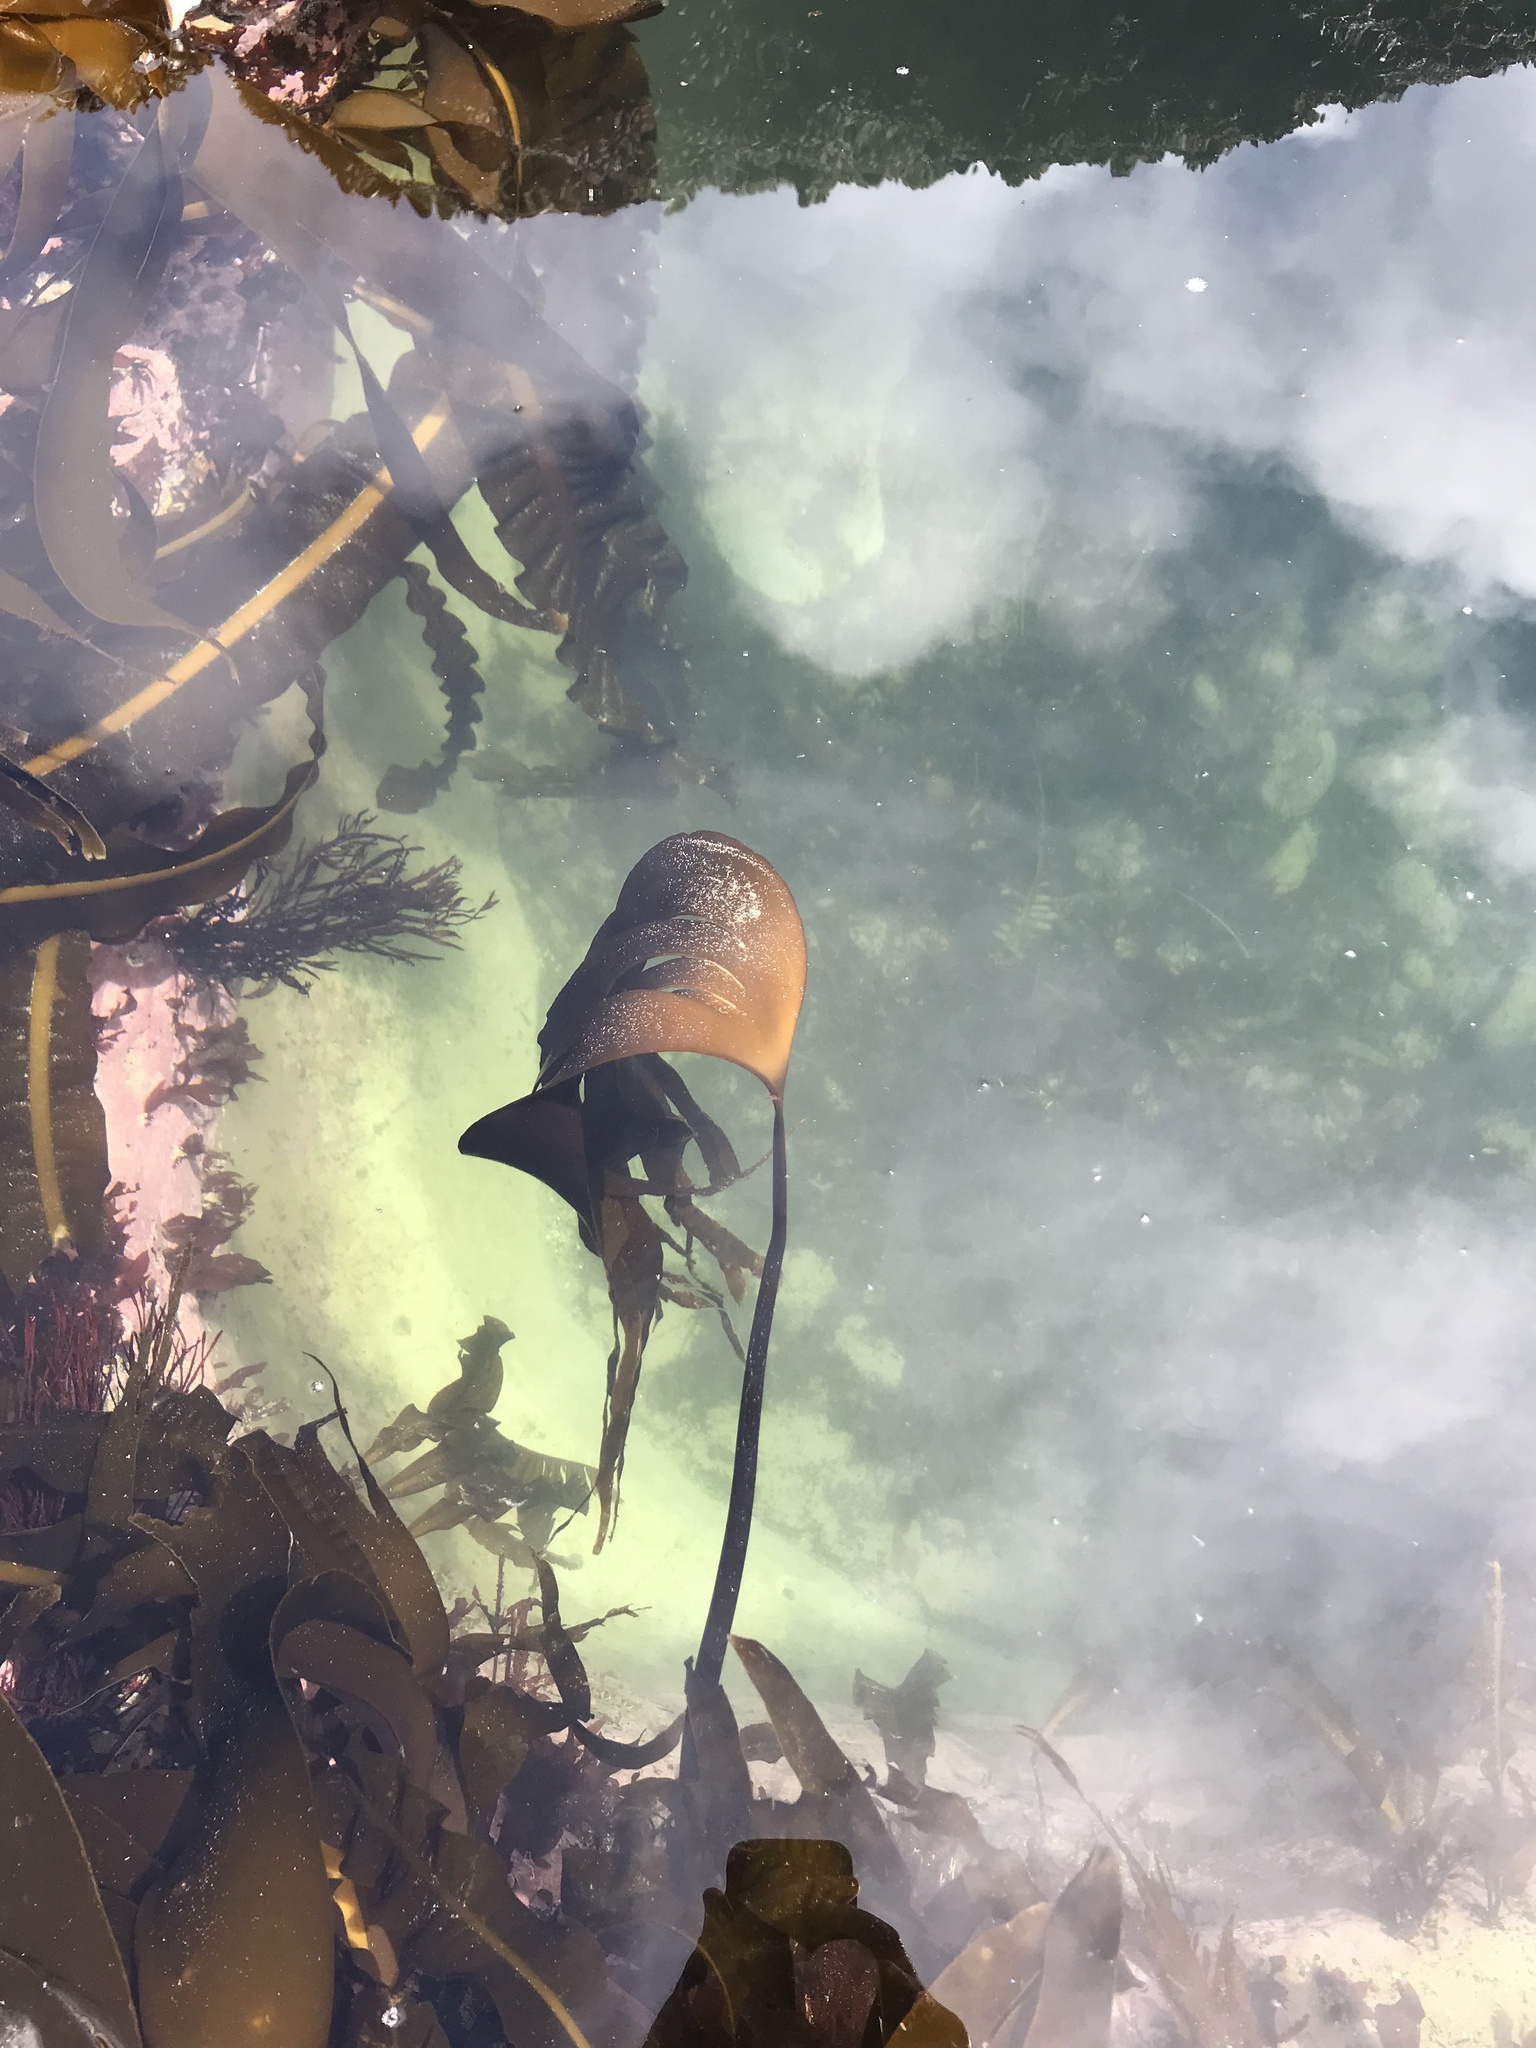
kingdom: Chromista
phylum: Ochrophyta
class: Phaeophyceae
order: Laminariales
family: Laminariaceae
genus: Laminaria
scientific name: Laminaria setchellii
